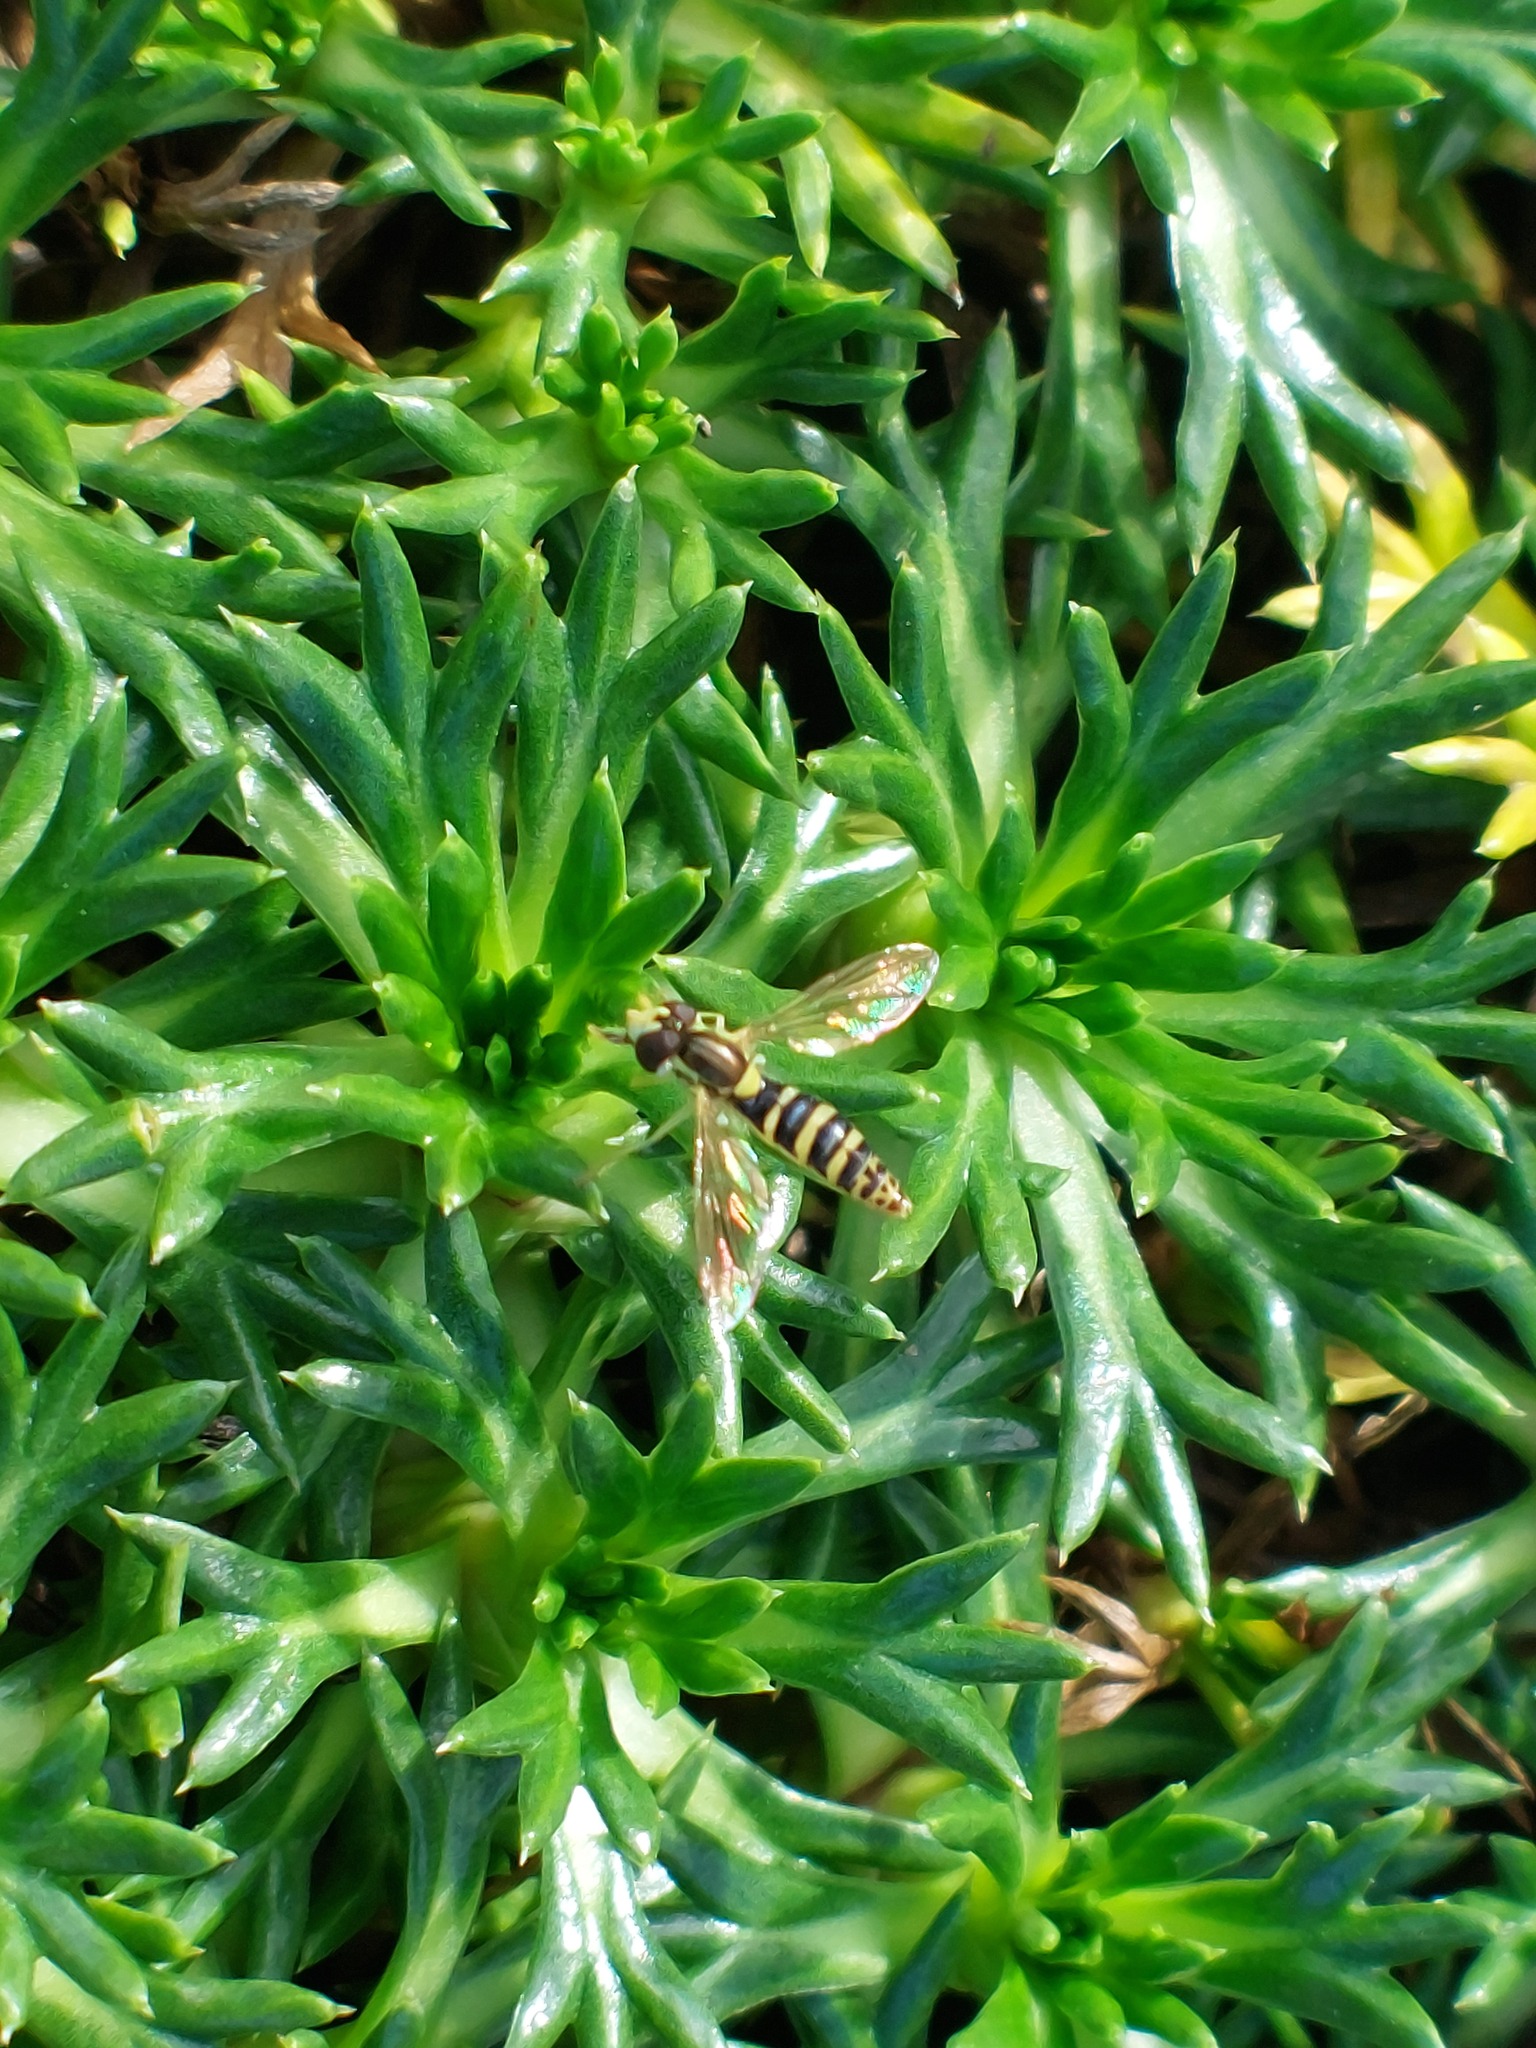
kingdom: Animalia
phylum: Arthropoda
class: Insecta
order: Diptera
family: Syrphidae
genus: Sphaerophoria
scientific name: Sphaerophoria scripta
